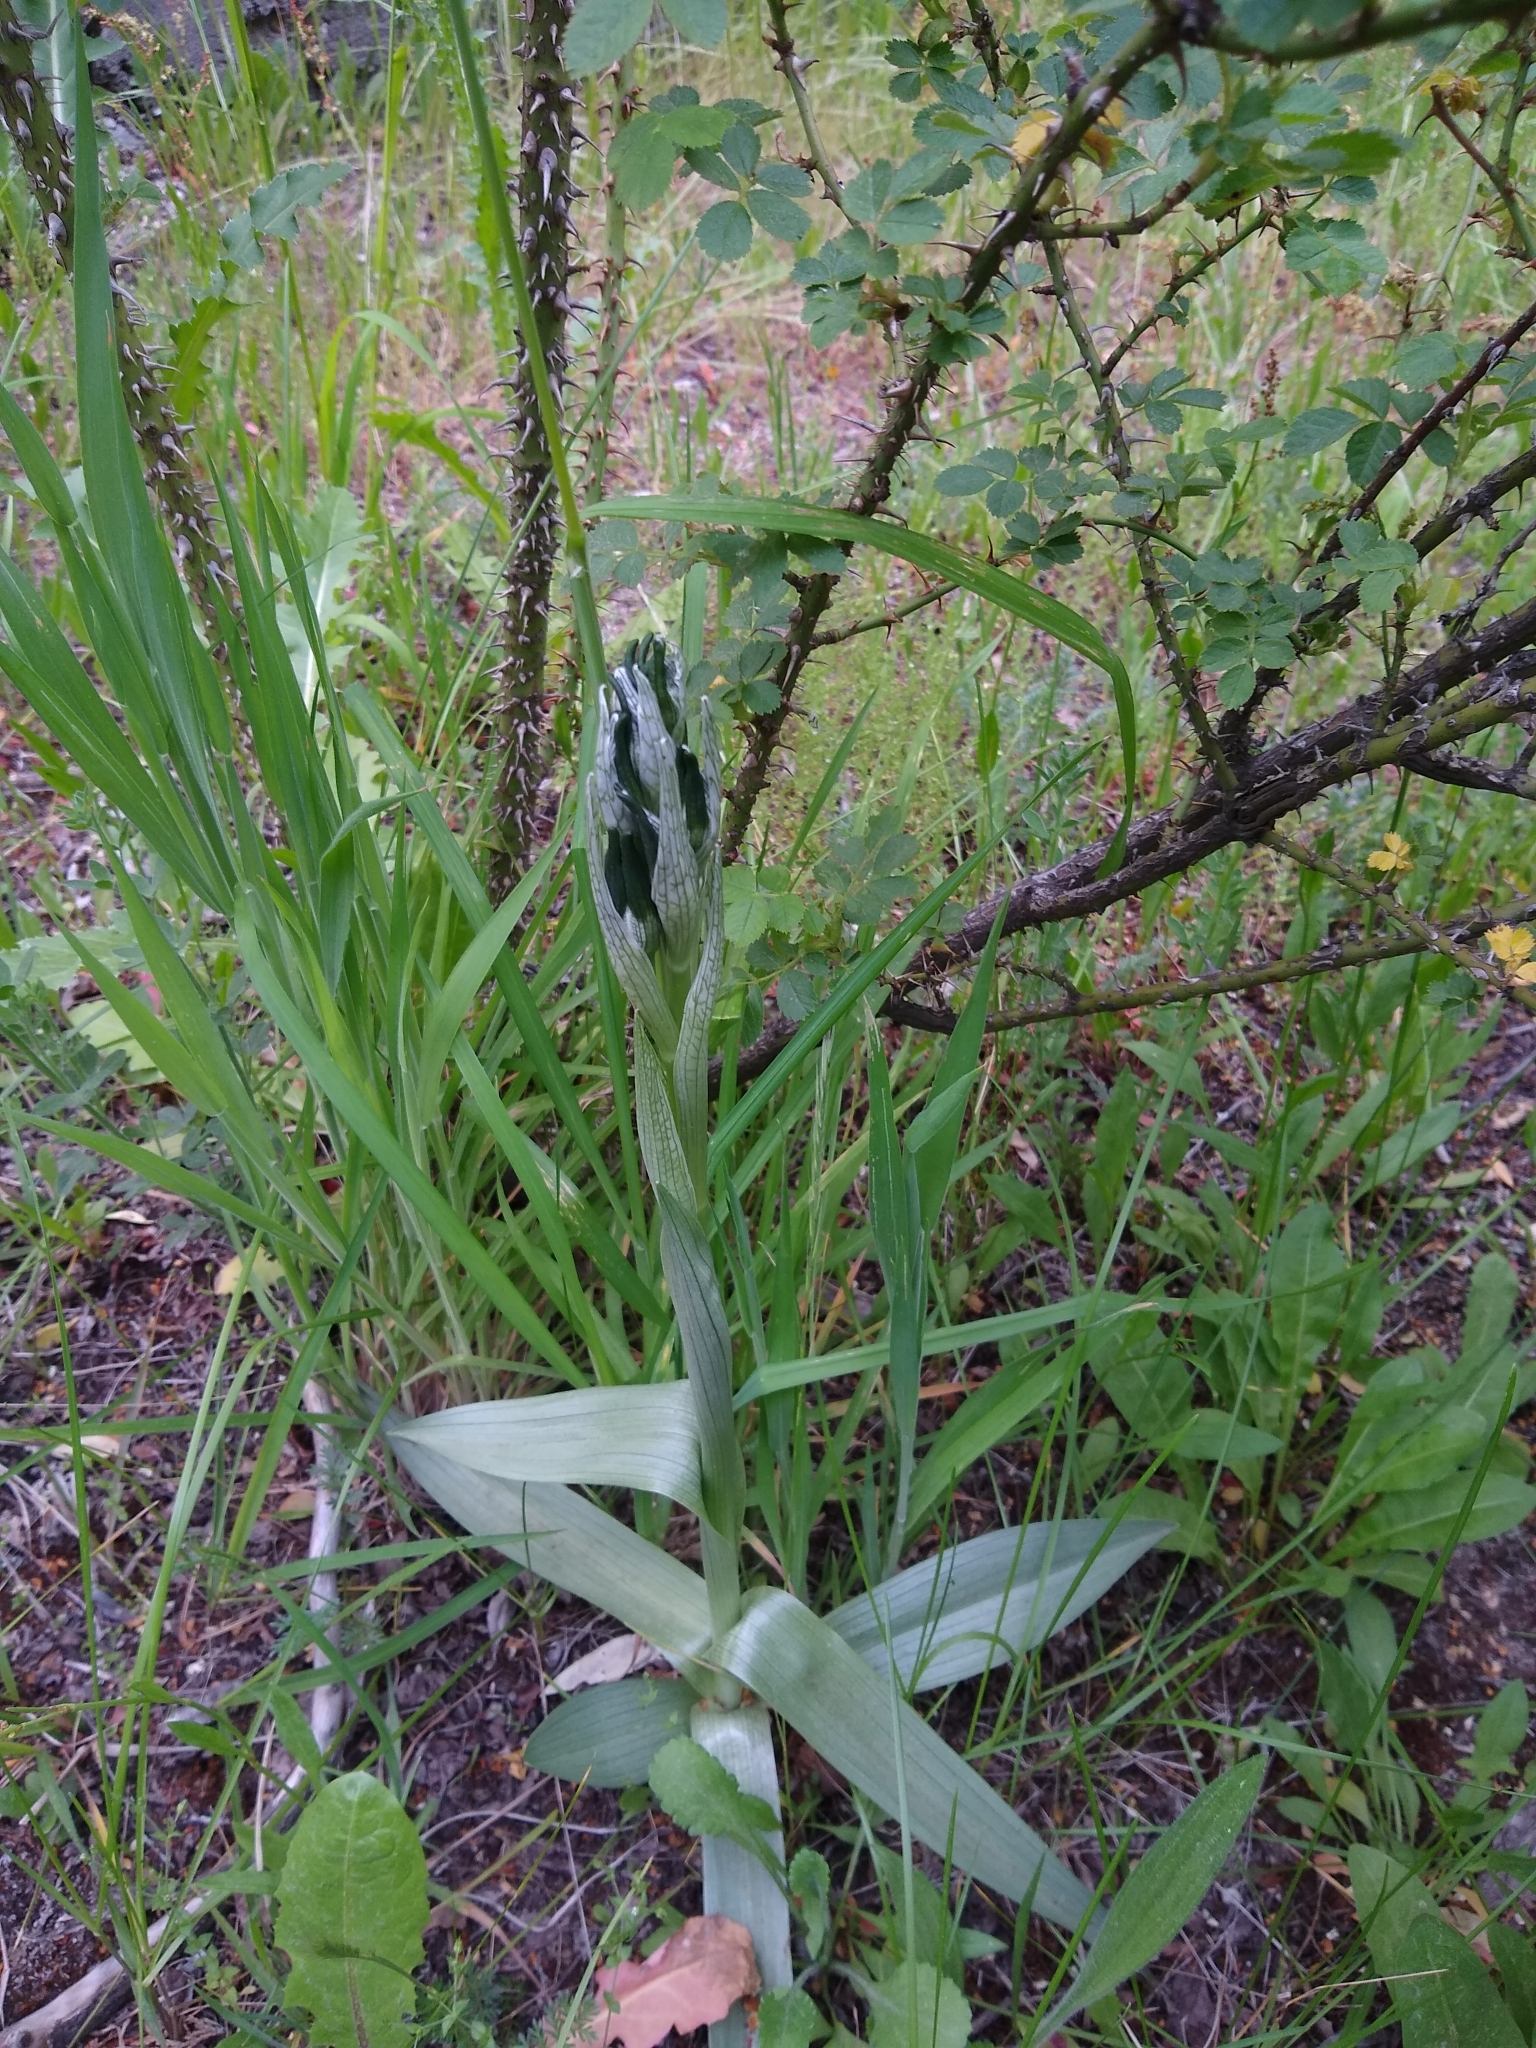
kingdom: Plantae
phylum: Tracheophyta
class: Liliopsida
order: Asparagales
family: Orchidaceae
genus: Chloraea
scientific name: Chloraea magellanica
